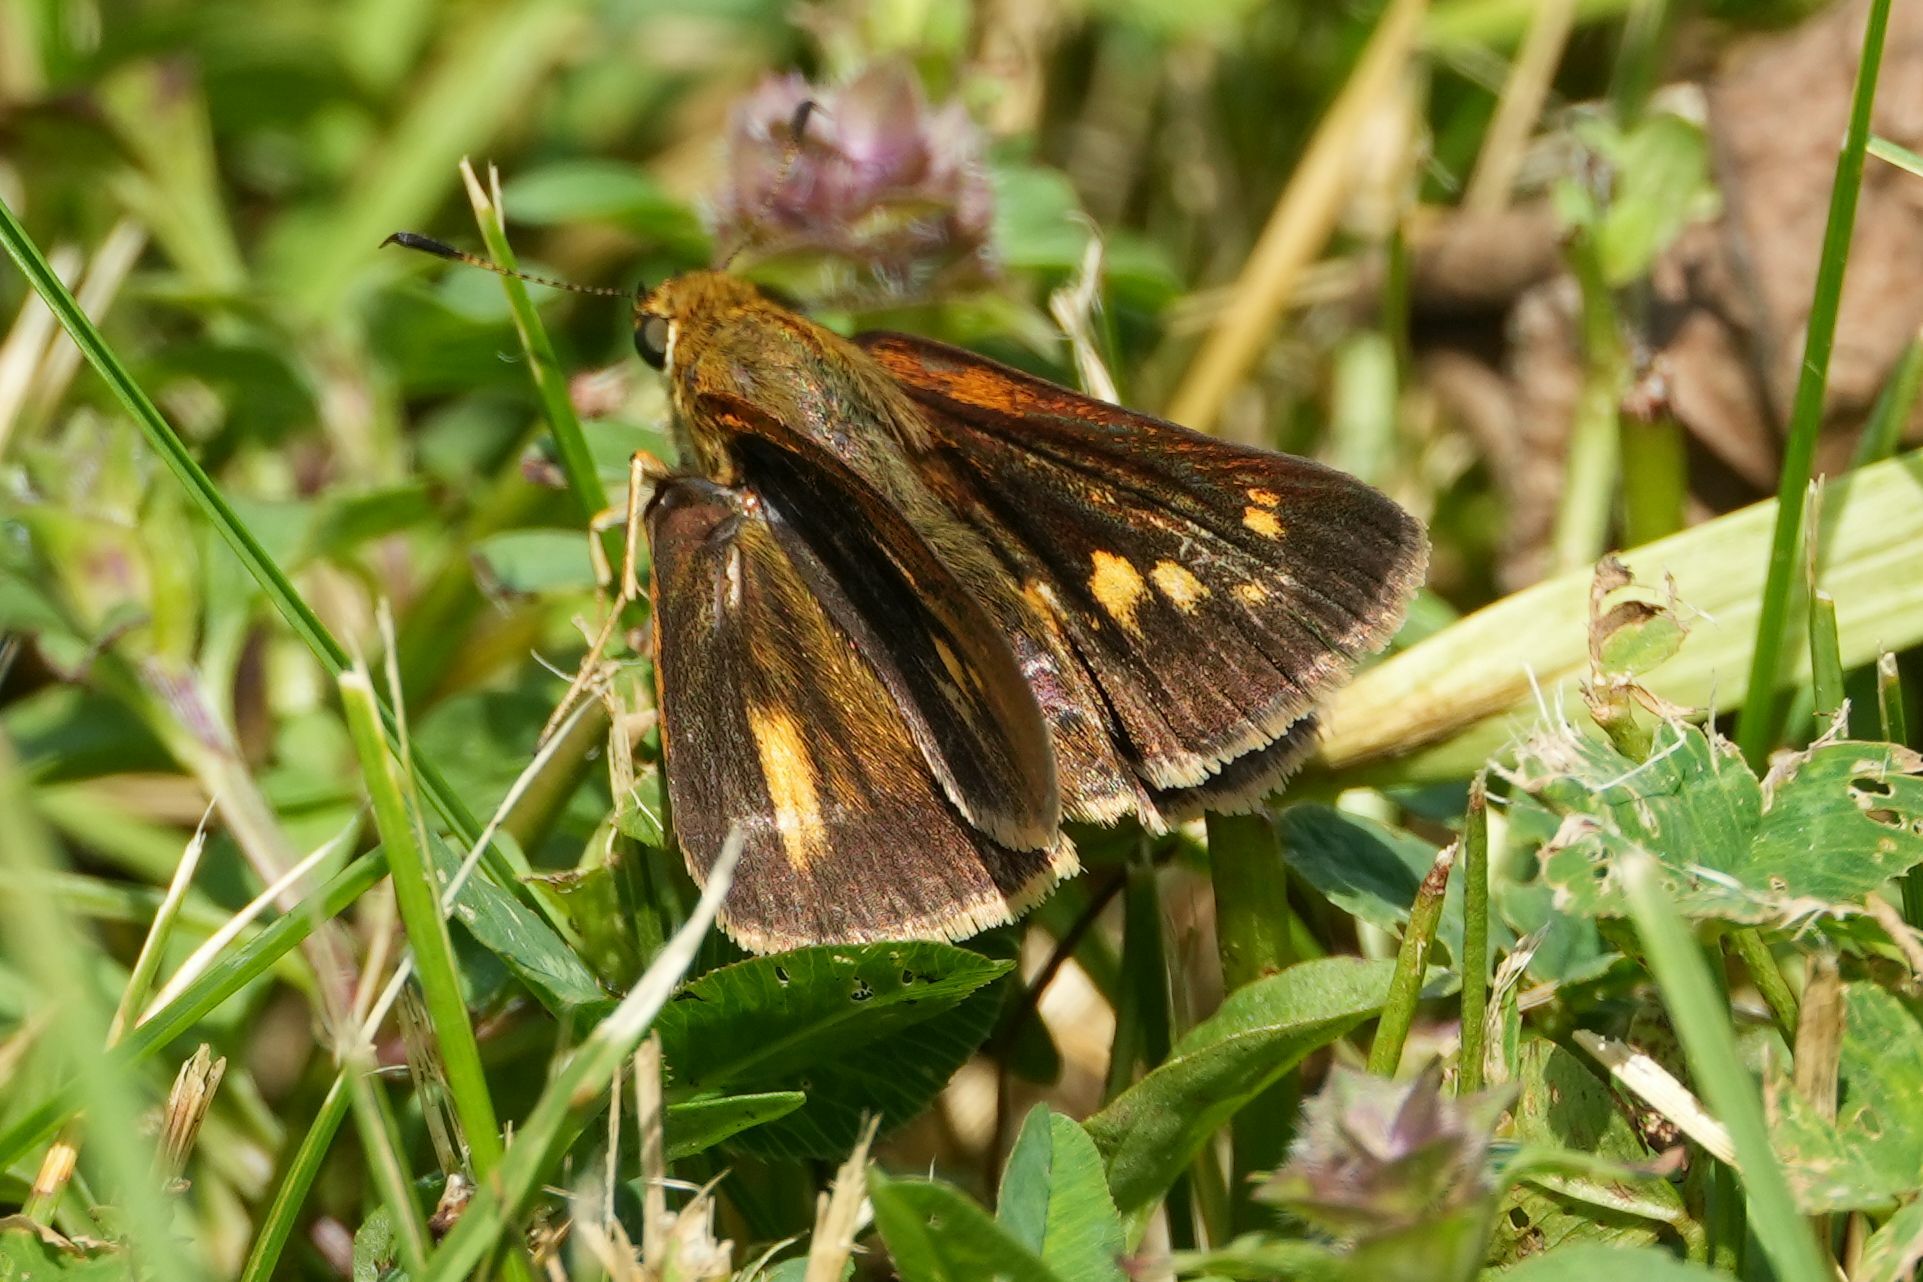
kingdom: Animalia
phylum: Arthropoda
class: Insecta
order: Lepidoptera
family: Hesperiidae
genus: Euphyes
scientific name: Euphyes dion
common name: Dion skipper
